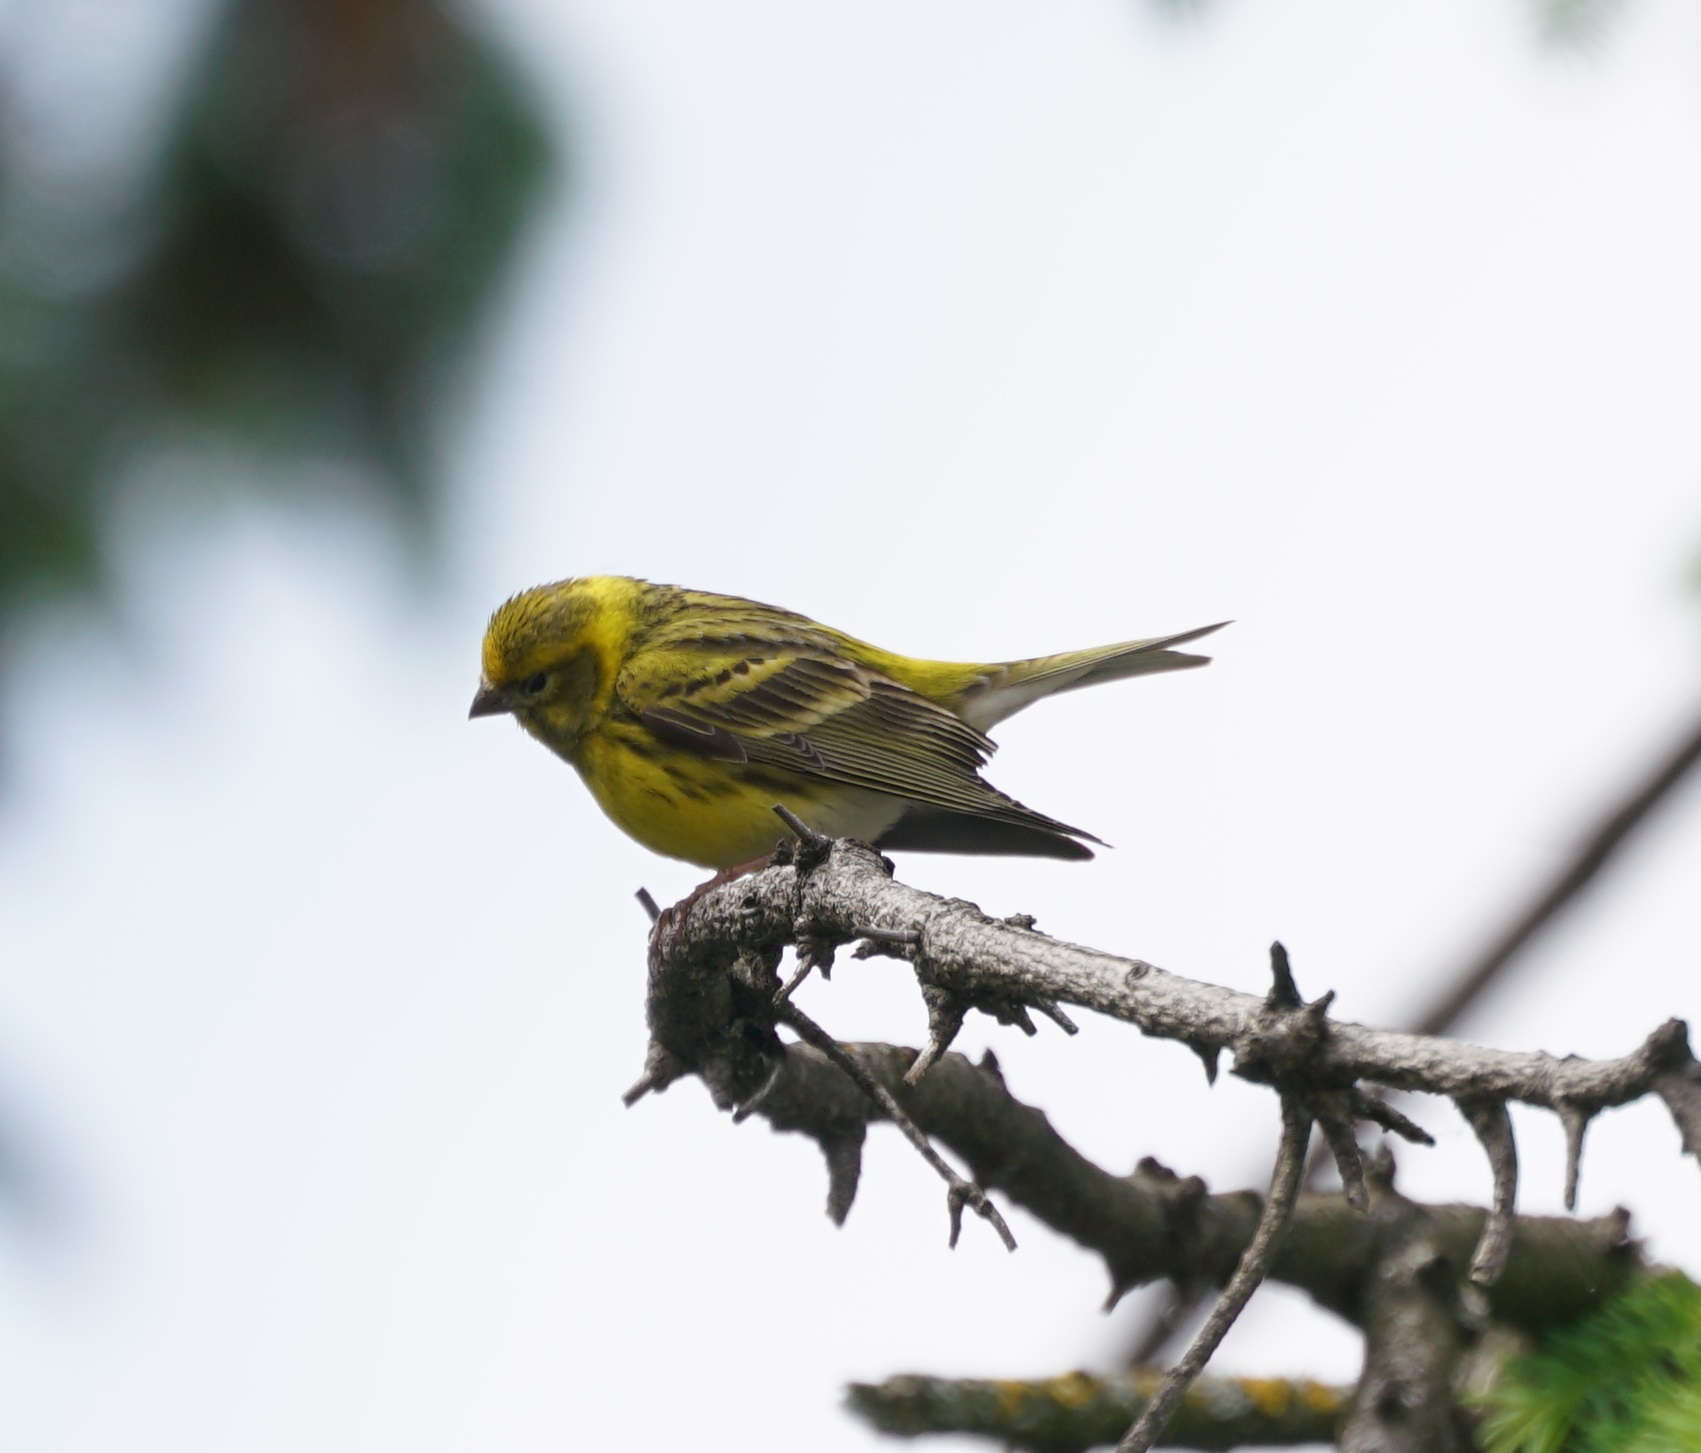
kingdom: Animalia
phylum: Chordata
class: Aves
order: Passeriformes
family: Fringillidae
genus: Serinus
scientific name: Serinus serinus
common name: European serin
